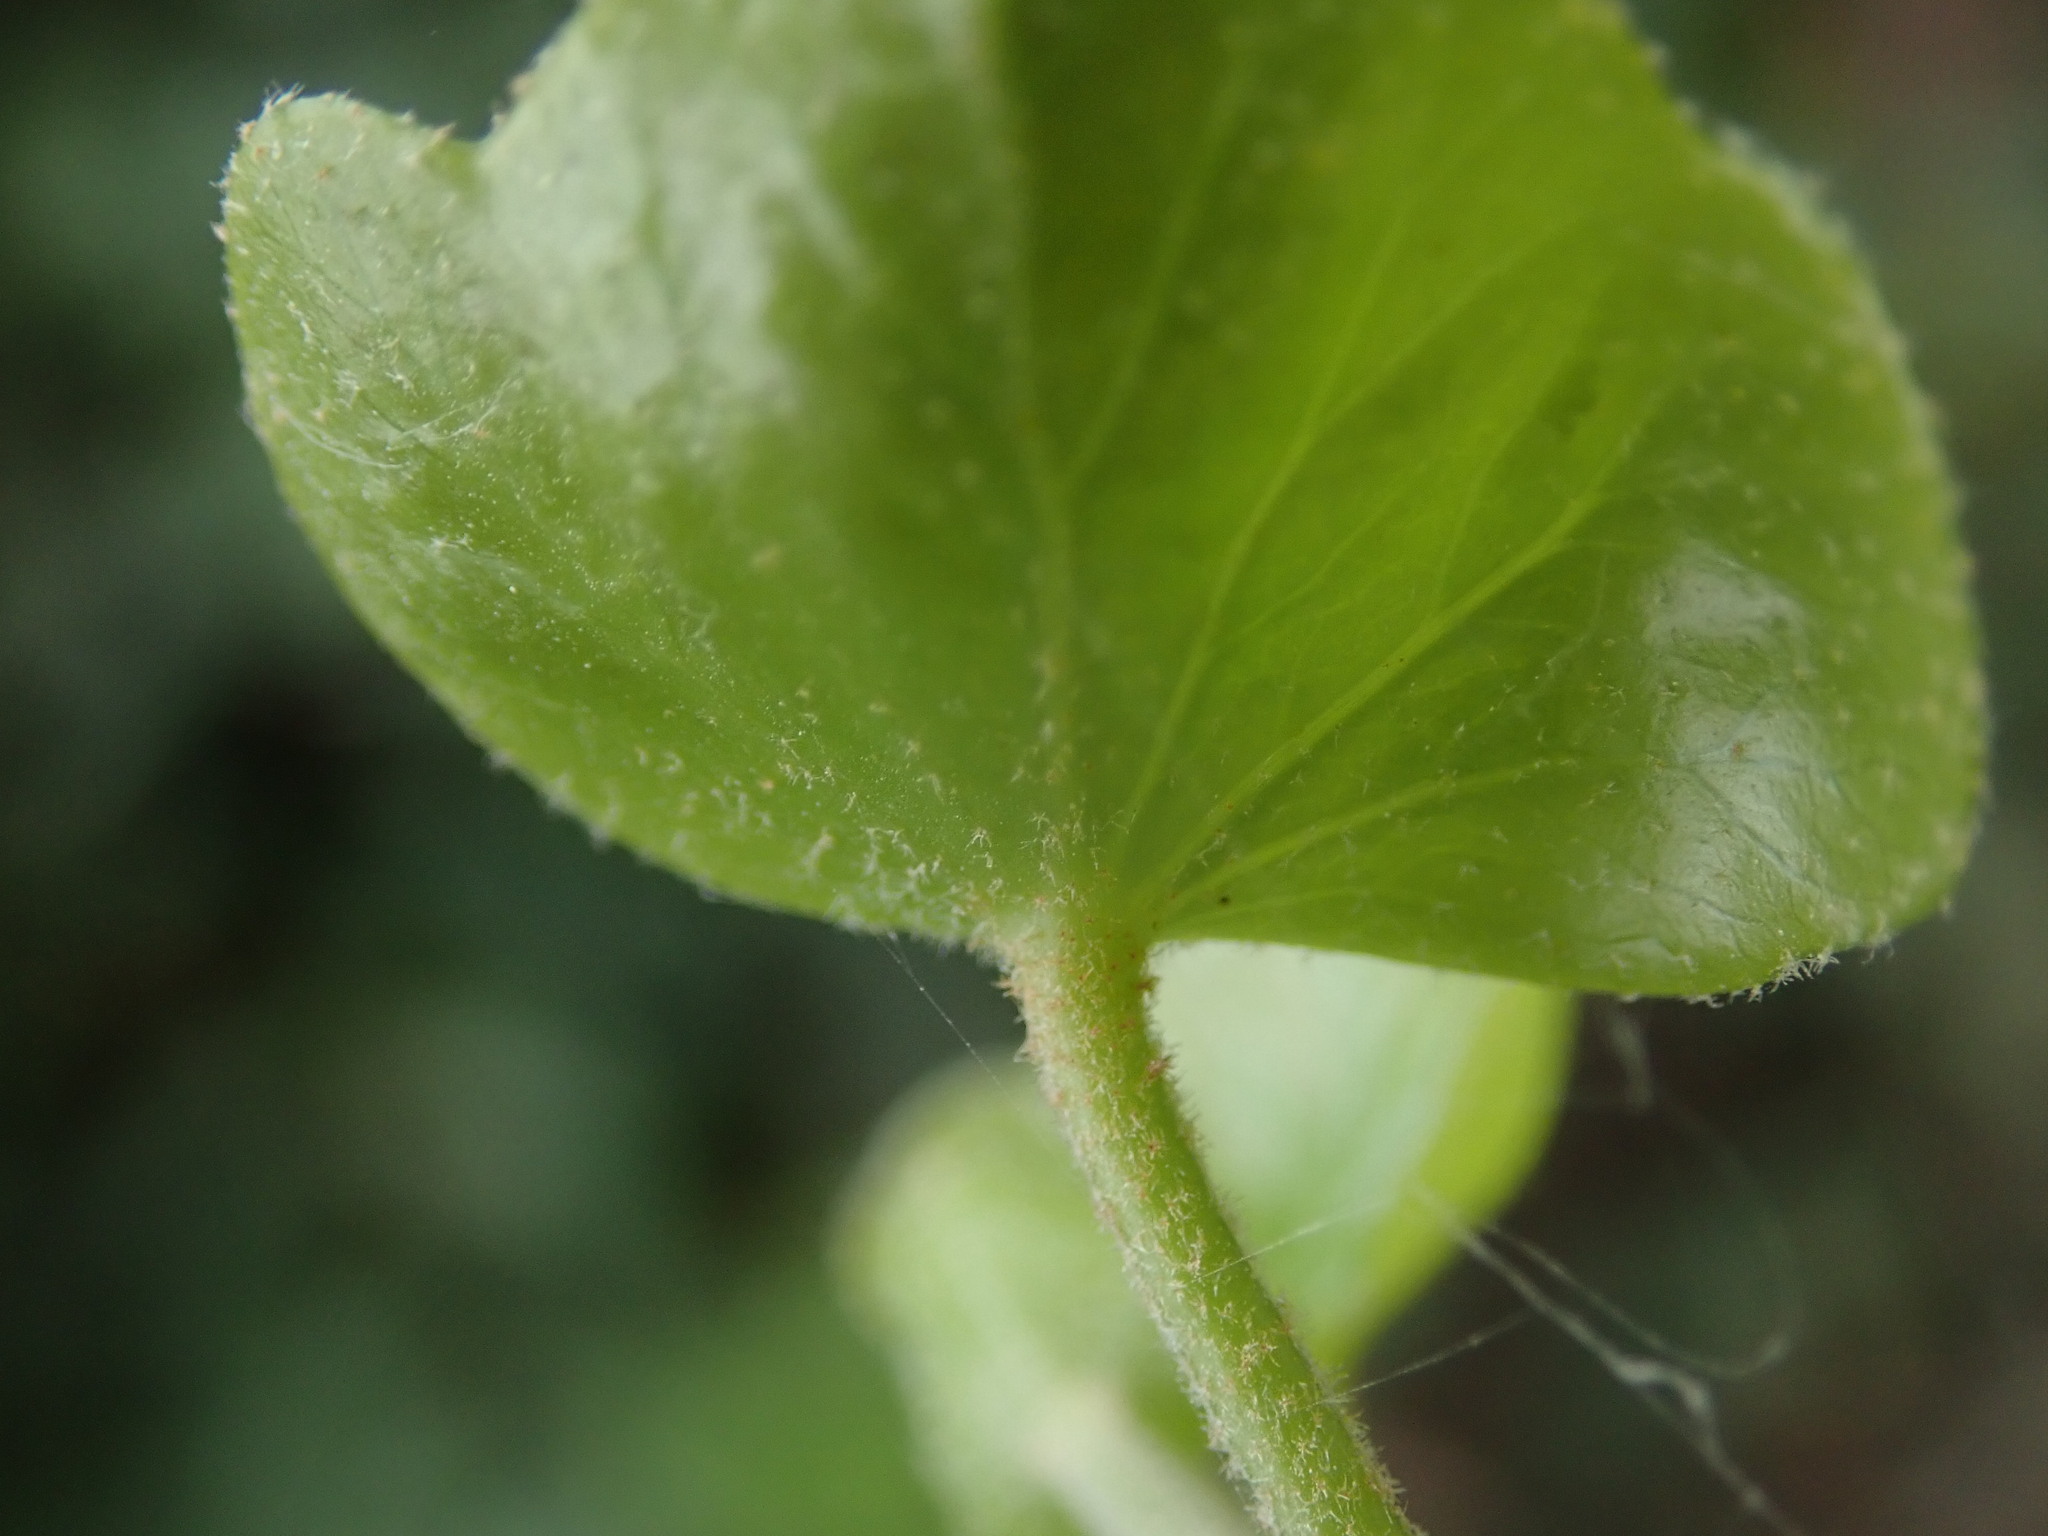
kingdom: Plantae
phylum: Tracheophyta
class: Magnoliopsida
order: Apiales
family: Araliaceae
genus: Hedera
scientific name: Hedera helix
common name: Ivy
